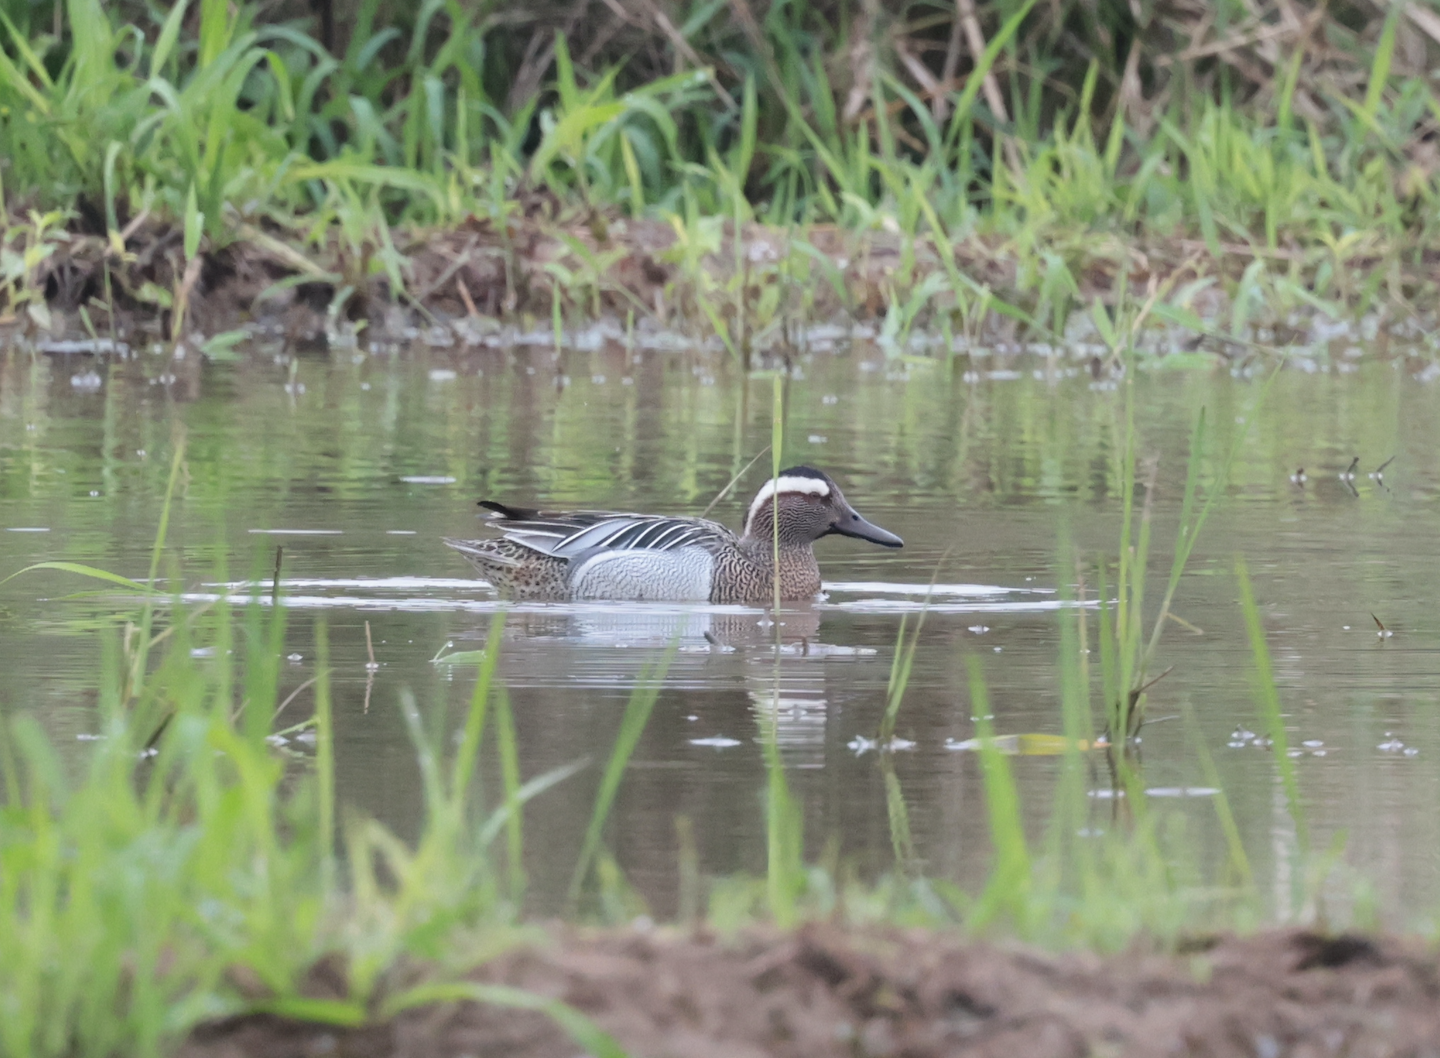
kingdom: Animalia
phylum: Chordata
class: Aves
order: Anseriformes
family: Anatidae
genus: Spatula
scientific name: Spatula querquedula
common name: Garganey
